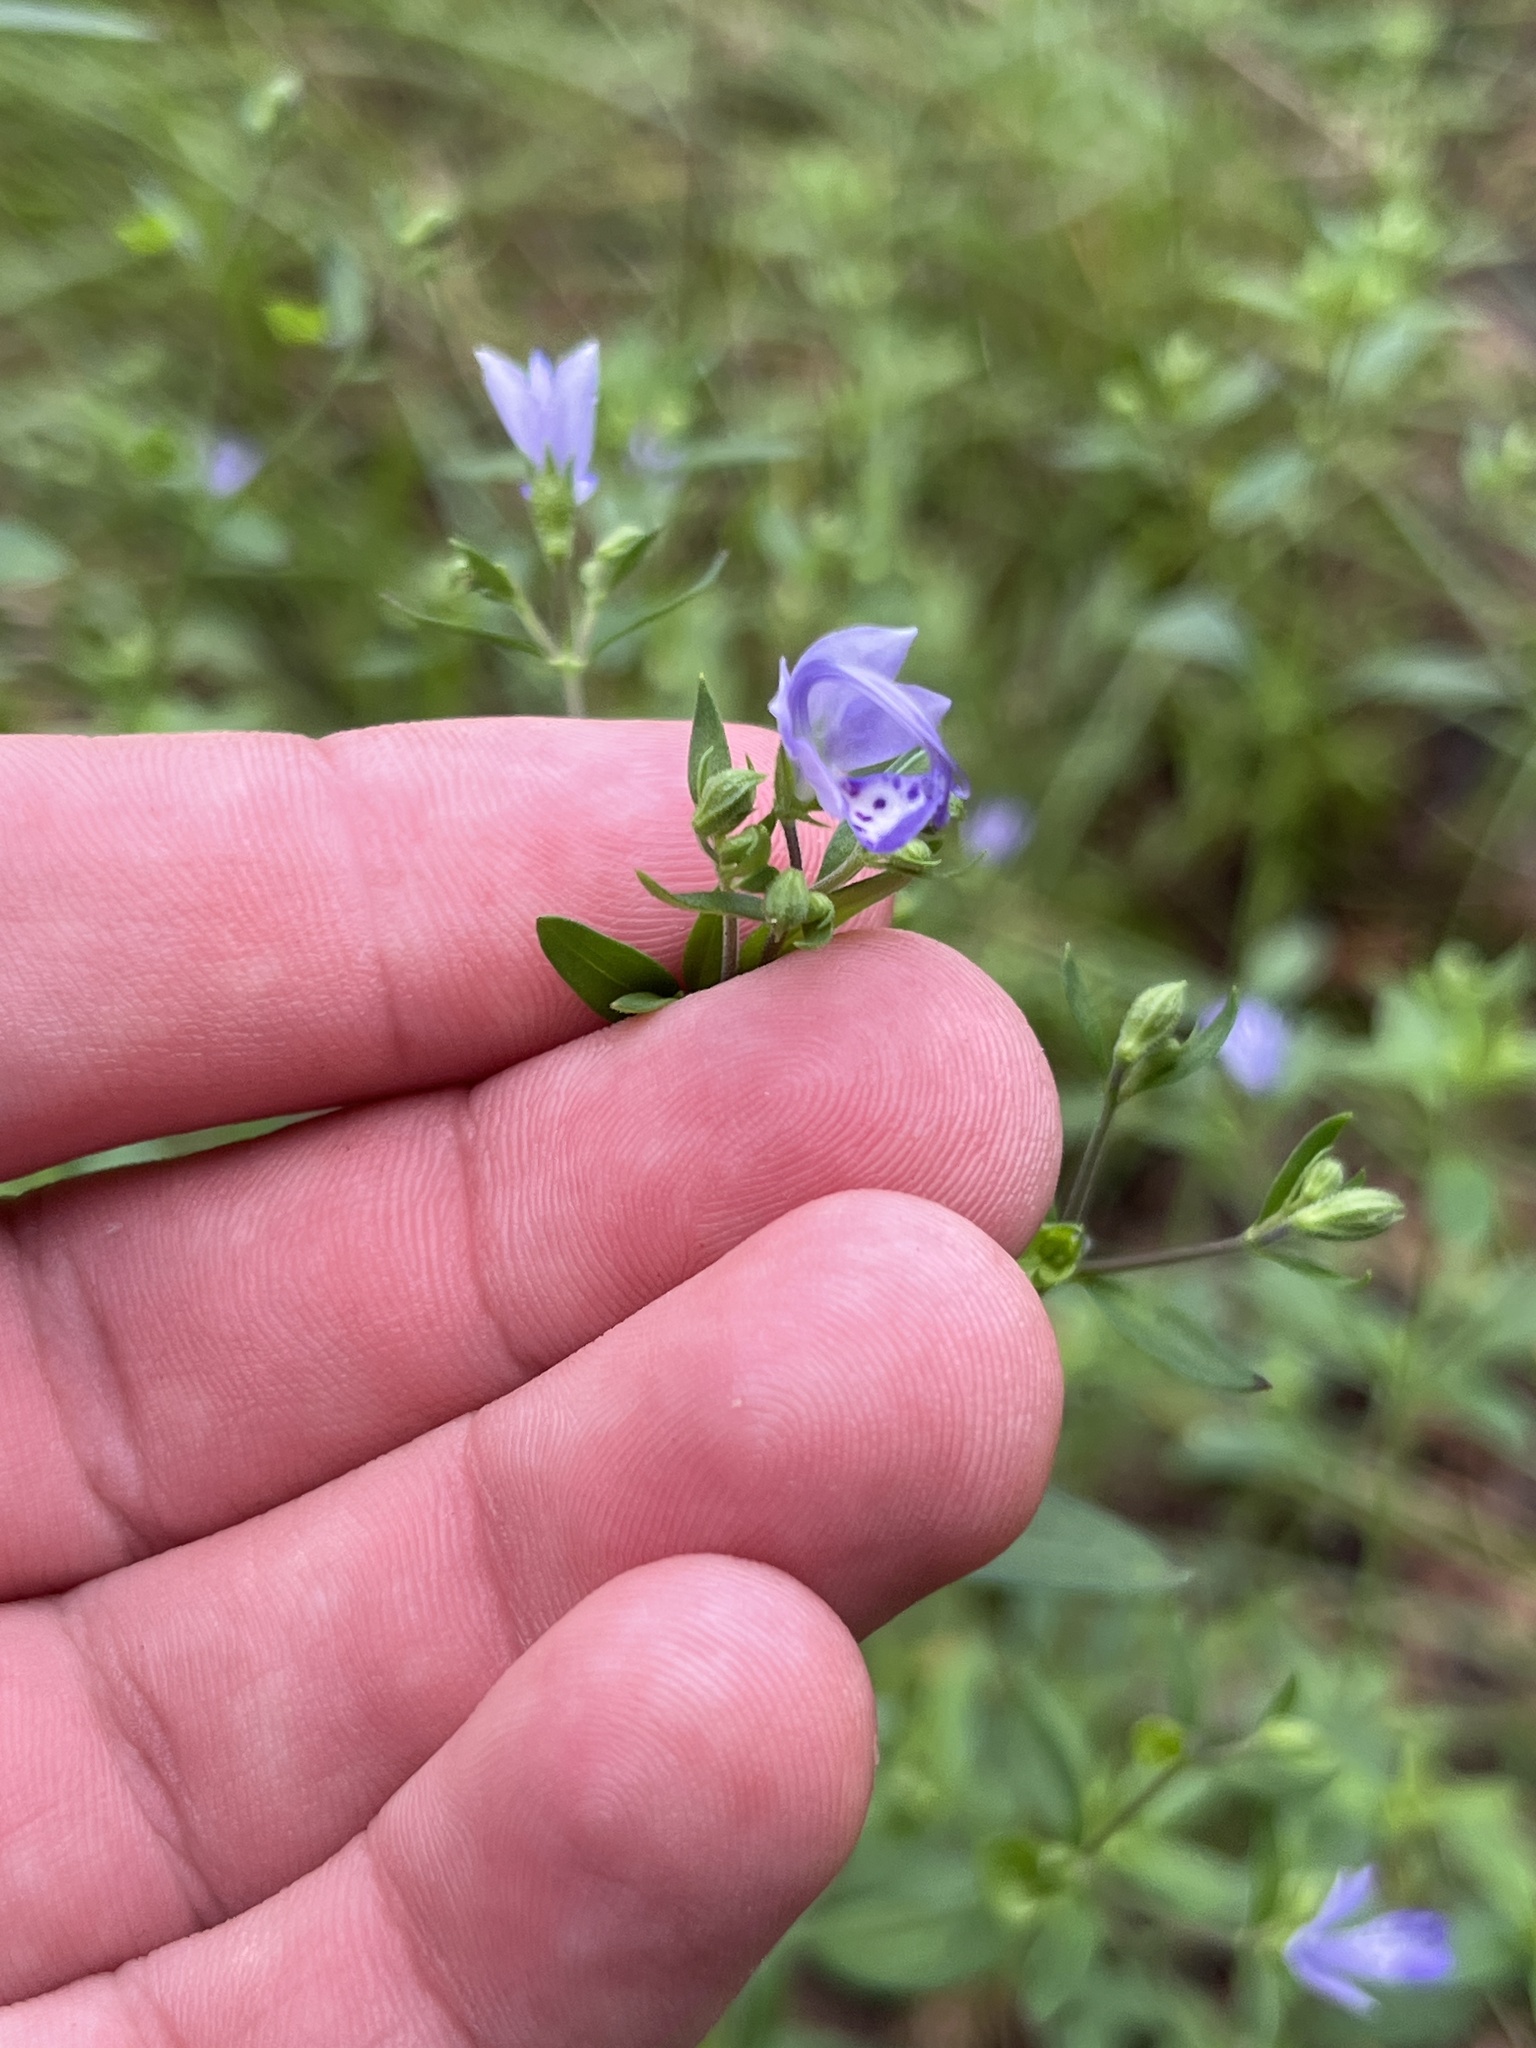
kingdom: Plantae
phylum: Tracheophyta
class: Magnoliopsida
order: Lamiales
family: Lamiaceae
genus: Trichostema
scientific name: Trichostema fruticosum
